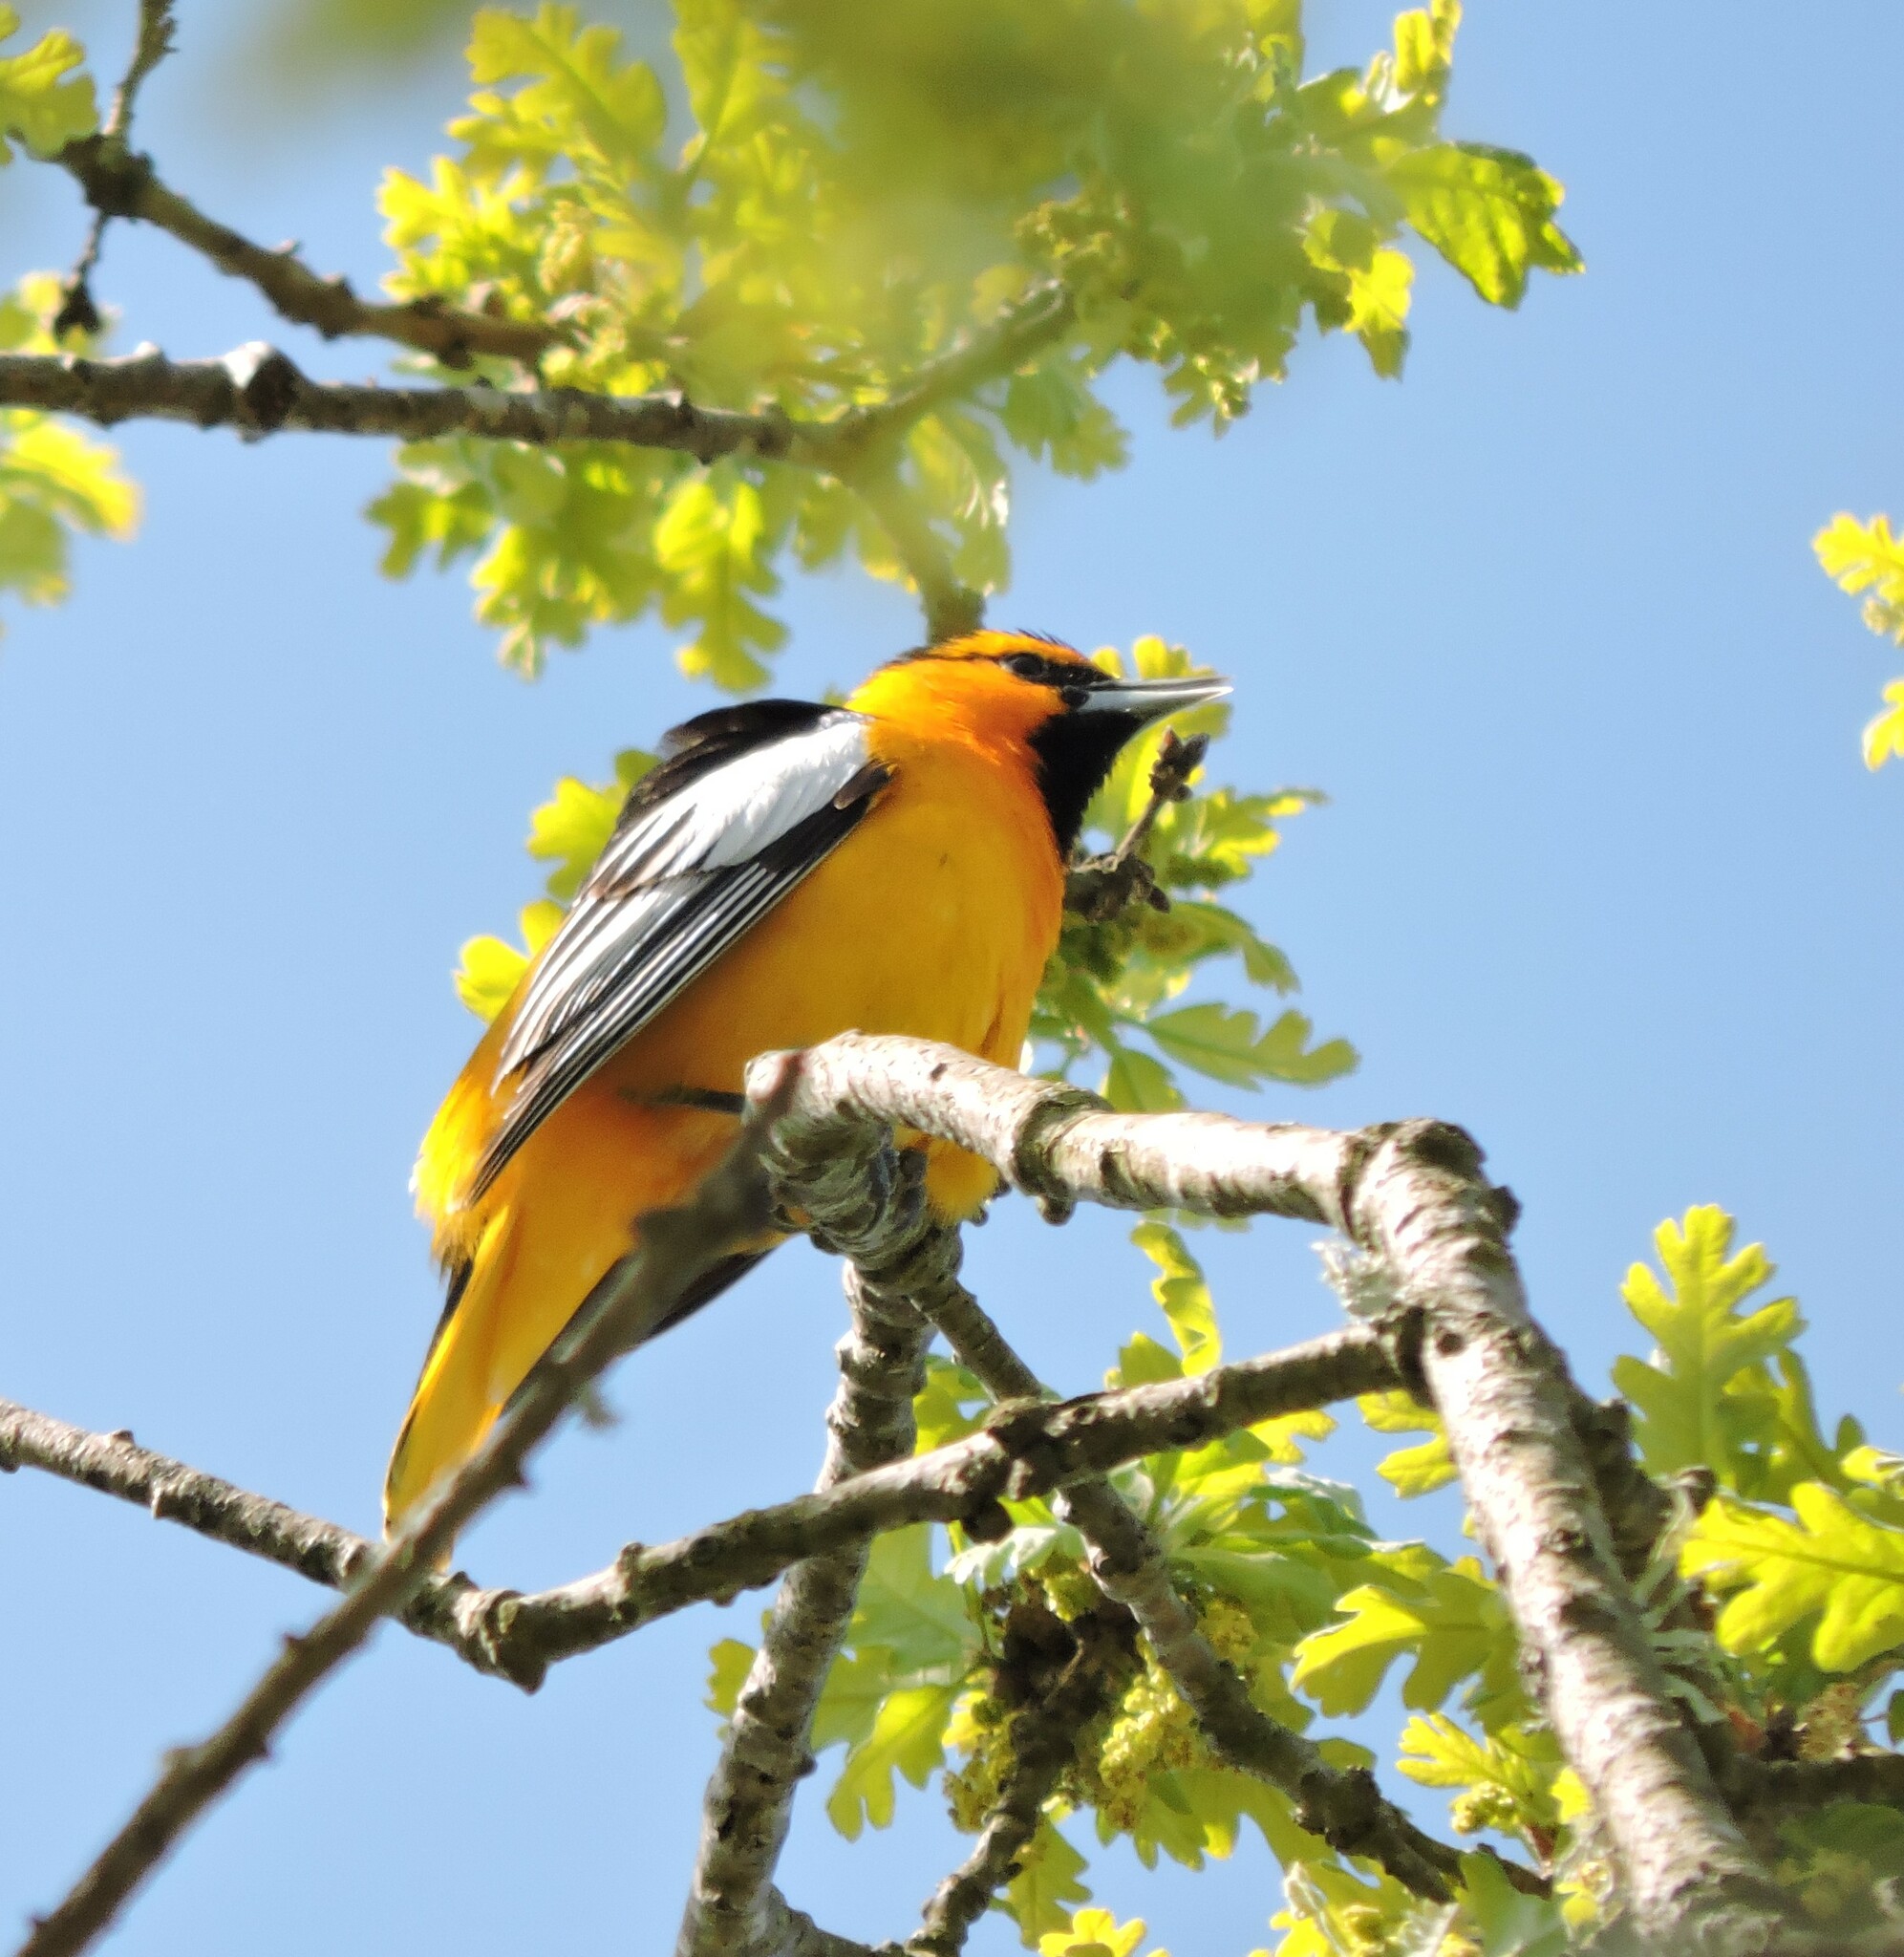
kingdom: Animalia
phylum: Chordata
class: Aves
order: Passeriformes
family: Icteridae
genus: Icterus
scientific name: Icterus bullockii
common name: Bullock's oriole
